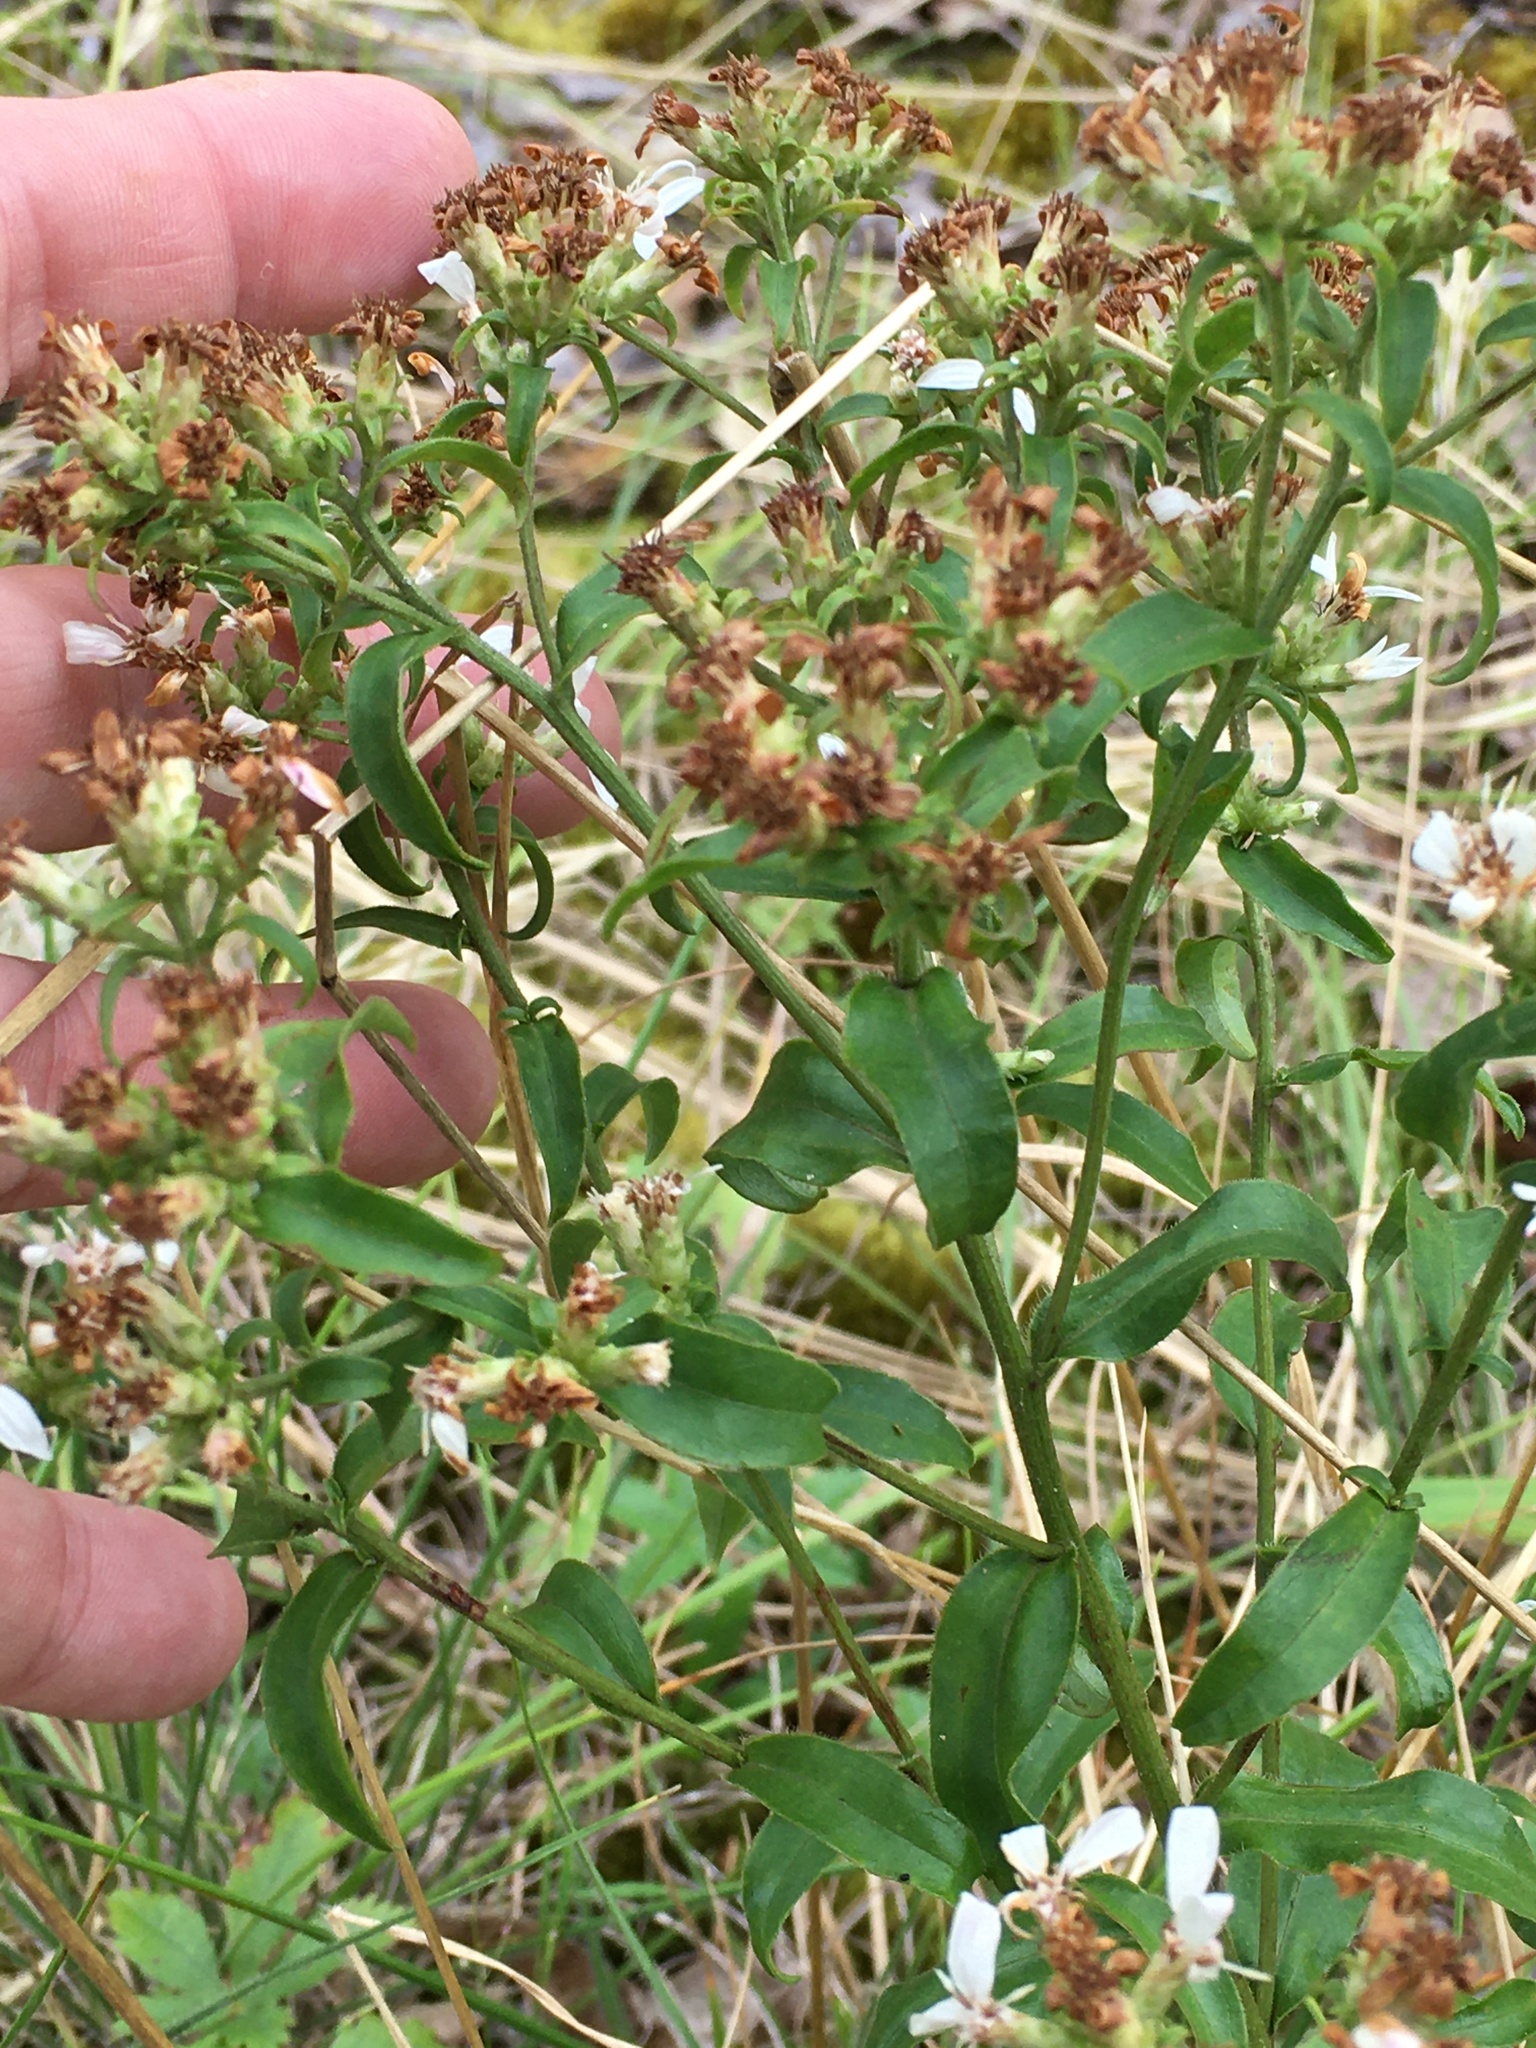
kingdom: Plantae
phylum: Tracheophyta
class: Magnoliopsida
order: Asterales
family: Asteraceae
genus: Sericocarpus
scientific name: Sericocarpus asteroides
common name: Toothed white-top aster
